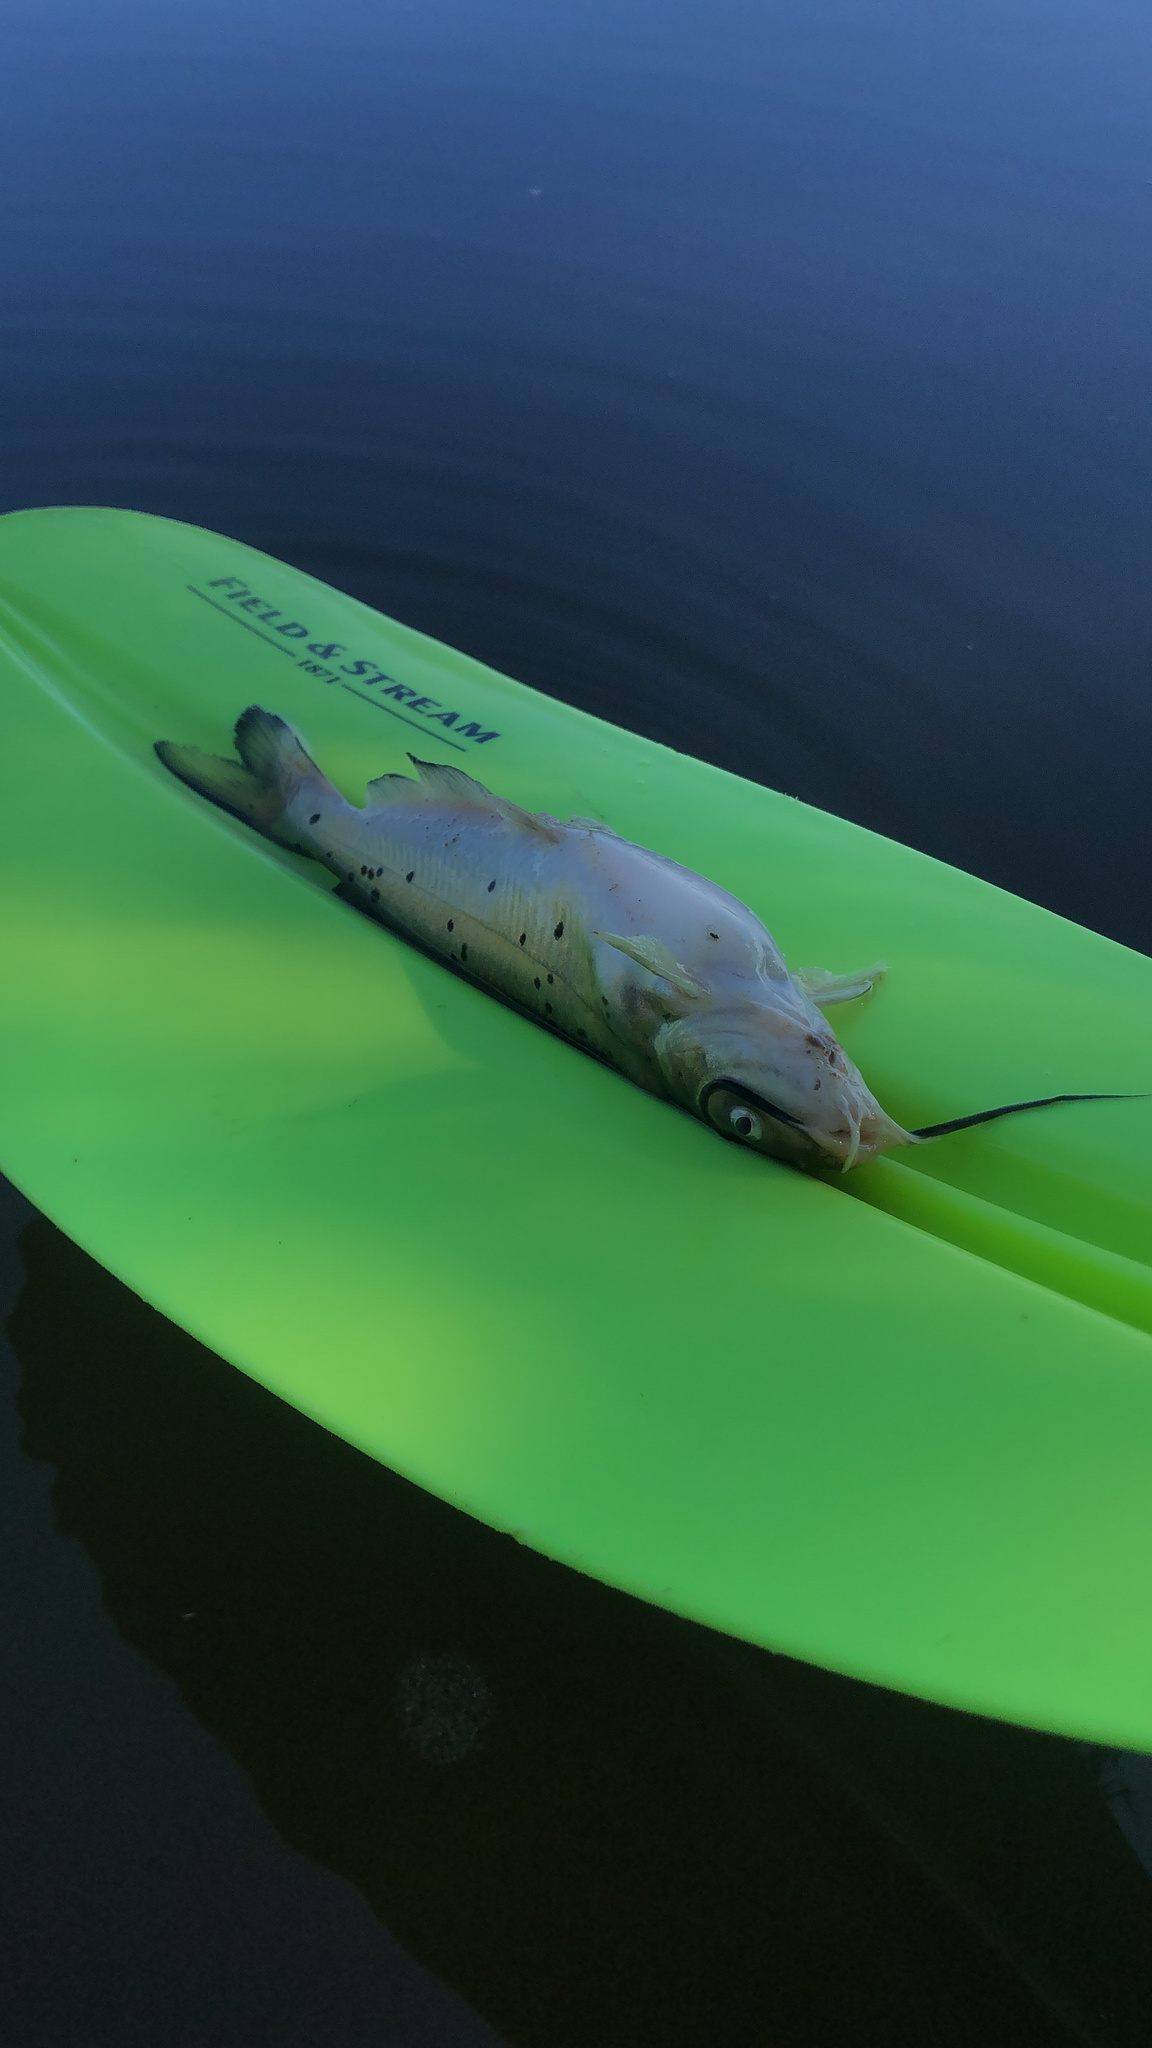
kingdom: Animalia
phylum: Chordata
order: Siluriformes
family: Ictaluridae
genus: Ictalurus
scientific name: Ictalurus punctatus
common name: Channel catfish
